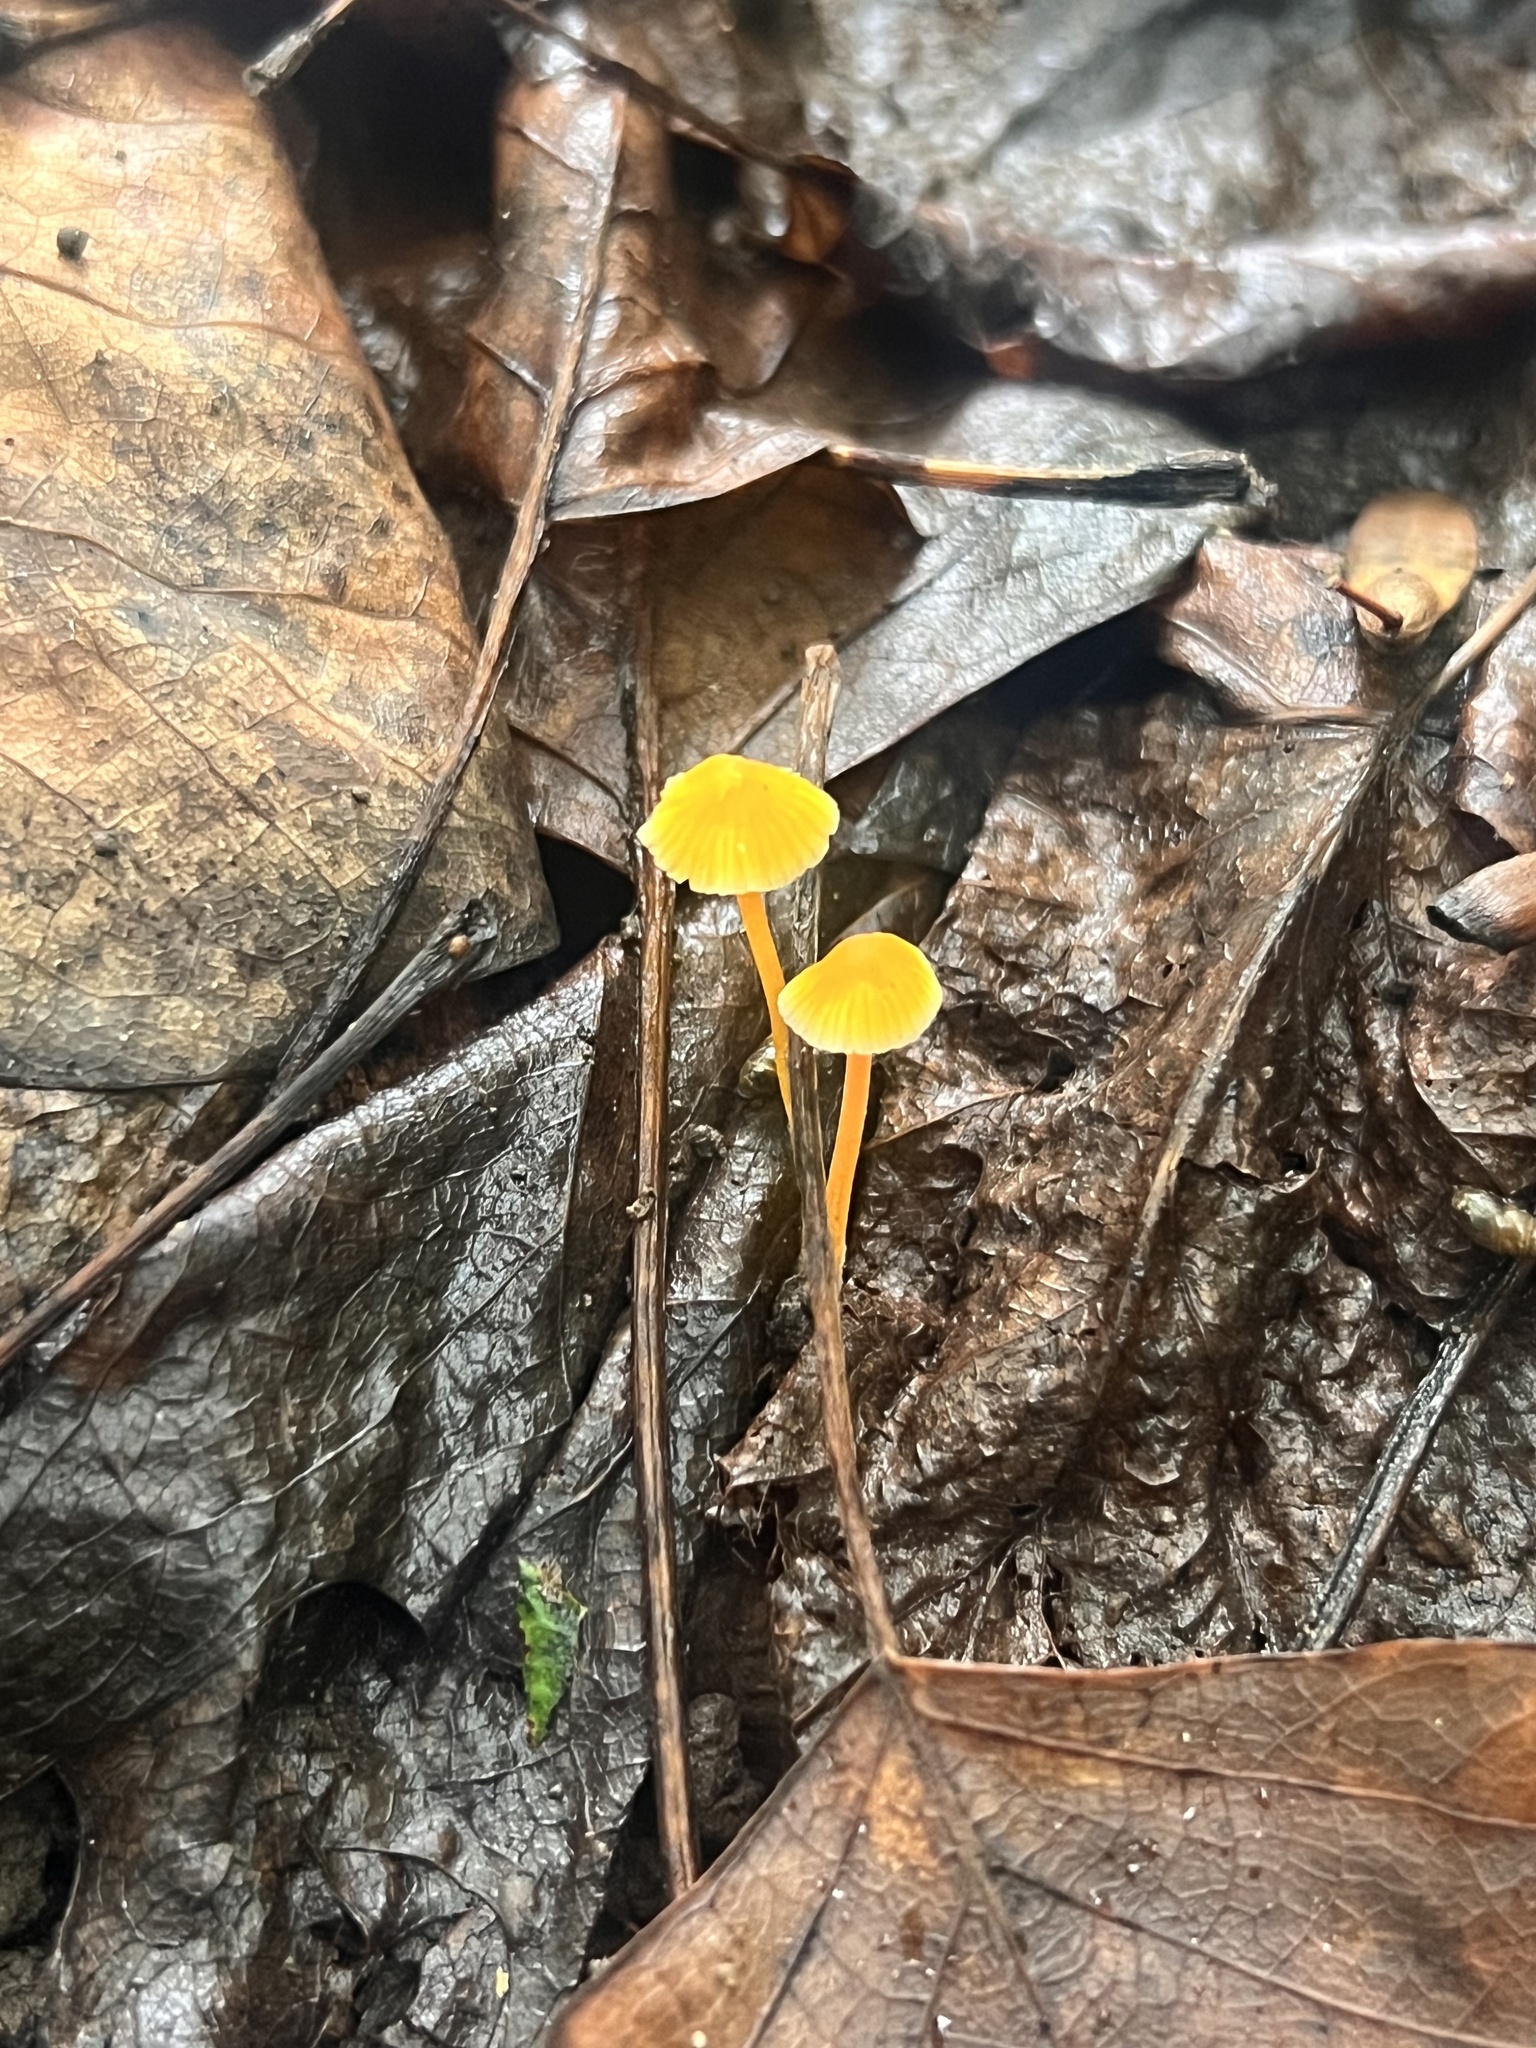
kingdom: Fungi
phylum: Basidiomycota
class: Agaricomycetes
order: Agaricales
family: Mycenaceae
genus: Mycena
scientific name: Mycena crocea
